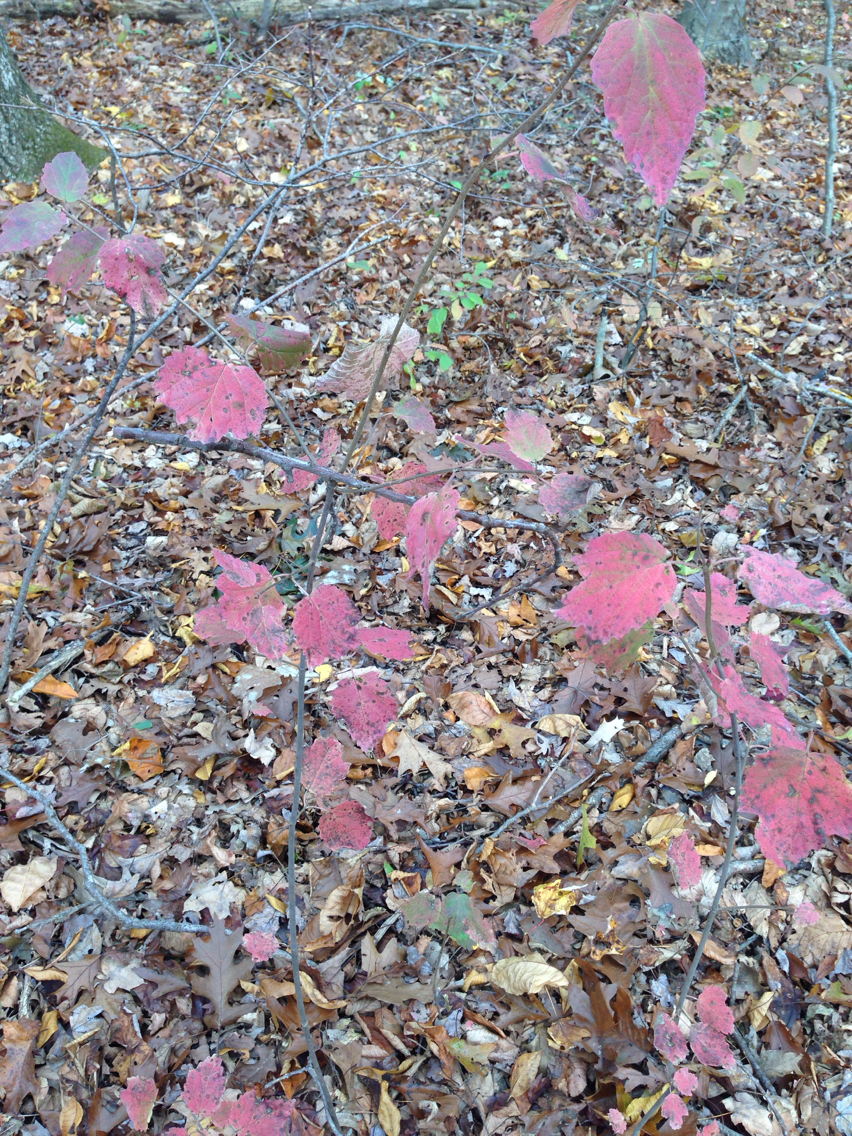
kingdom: Plantae
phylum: Tracheophyta
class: Magnoliopsida
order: Dipsacales
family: Viburnaceae
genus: Viburnum
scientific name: Viburnum acerifolium
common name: Dockmackie
